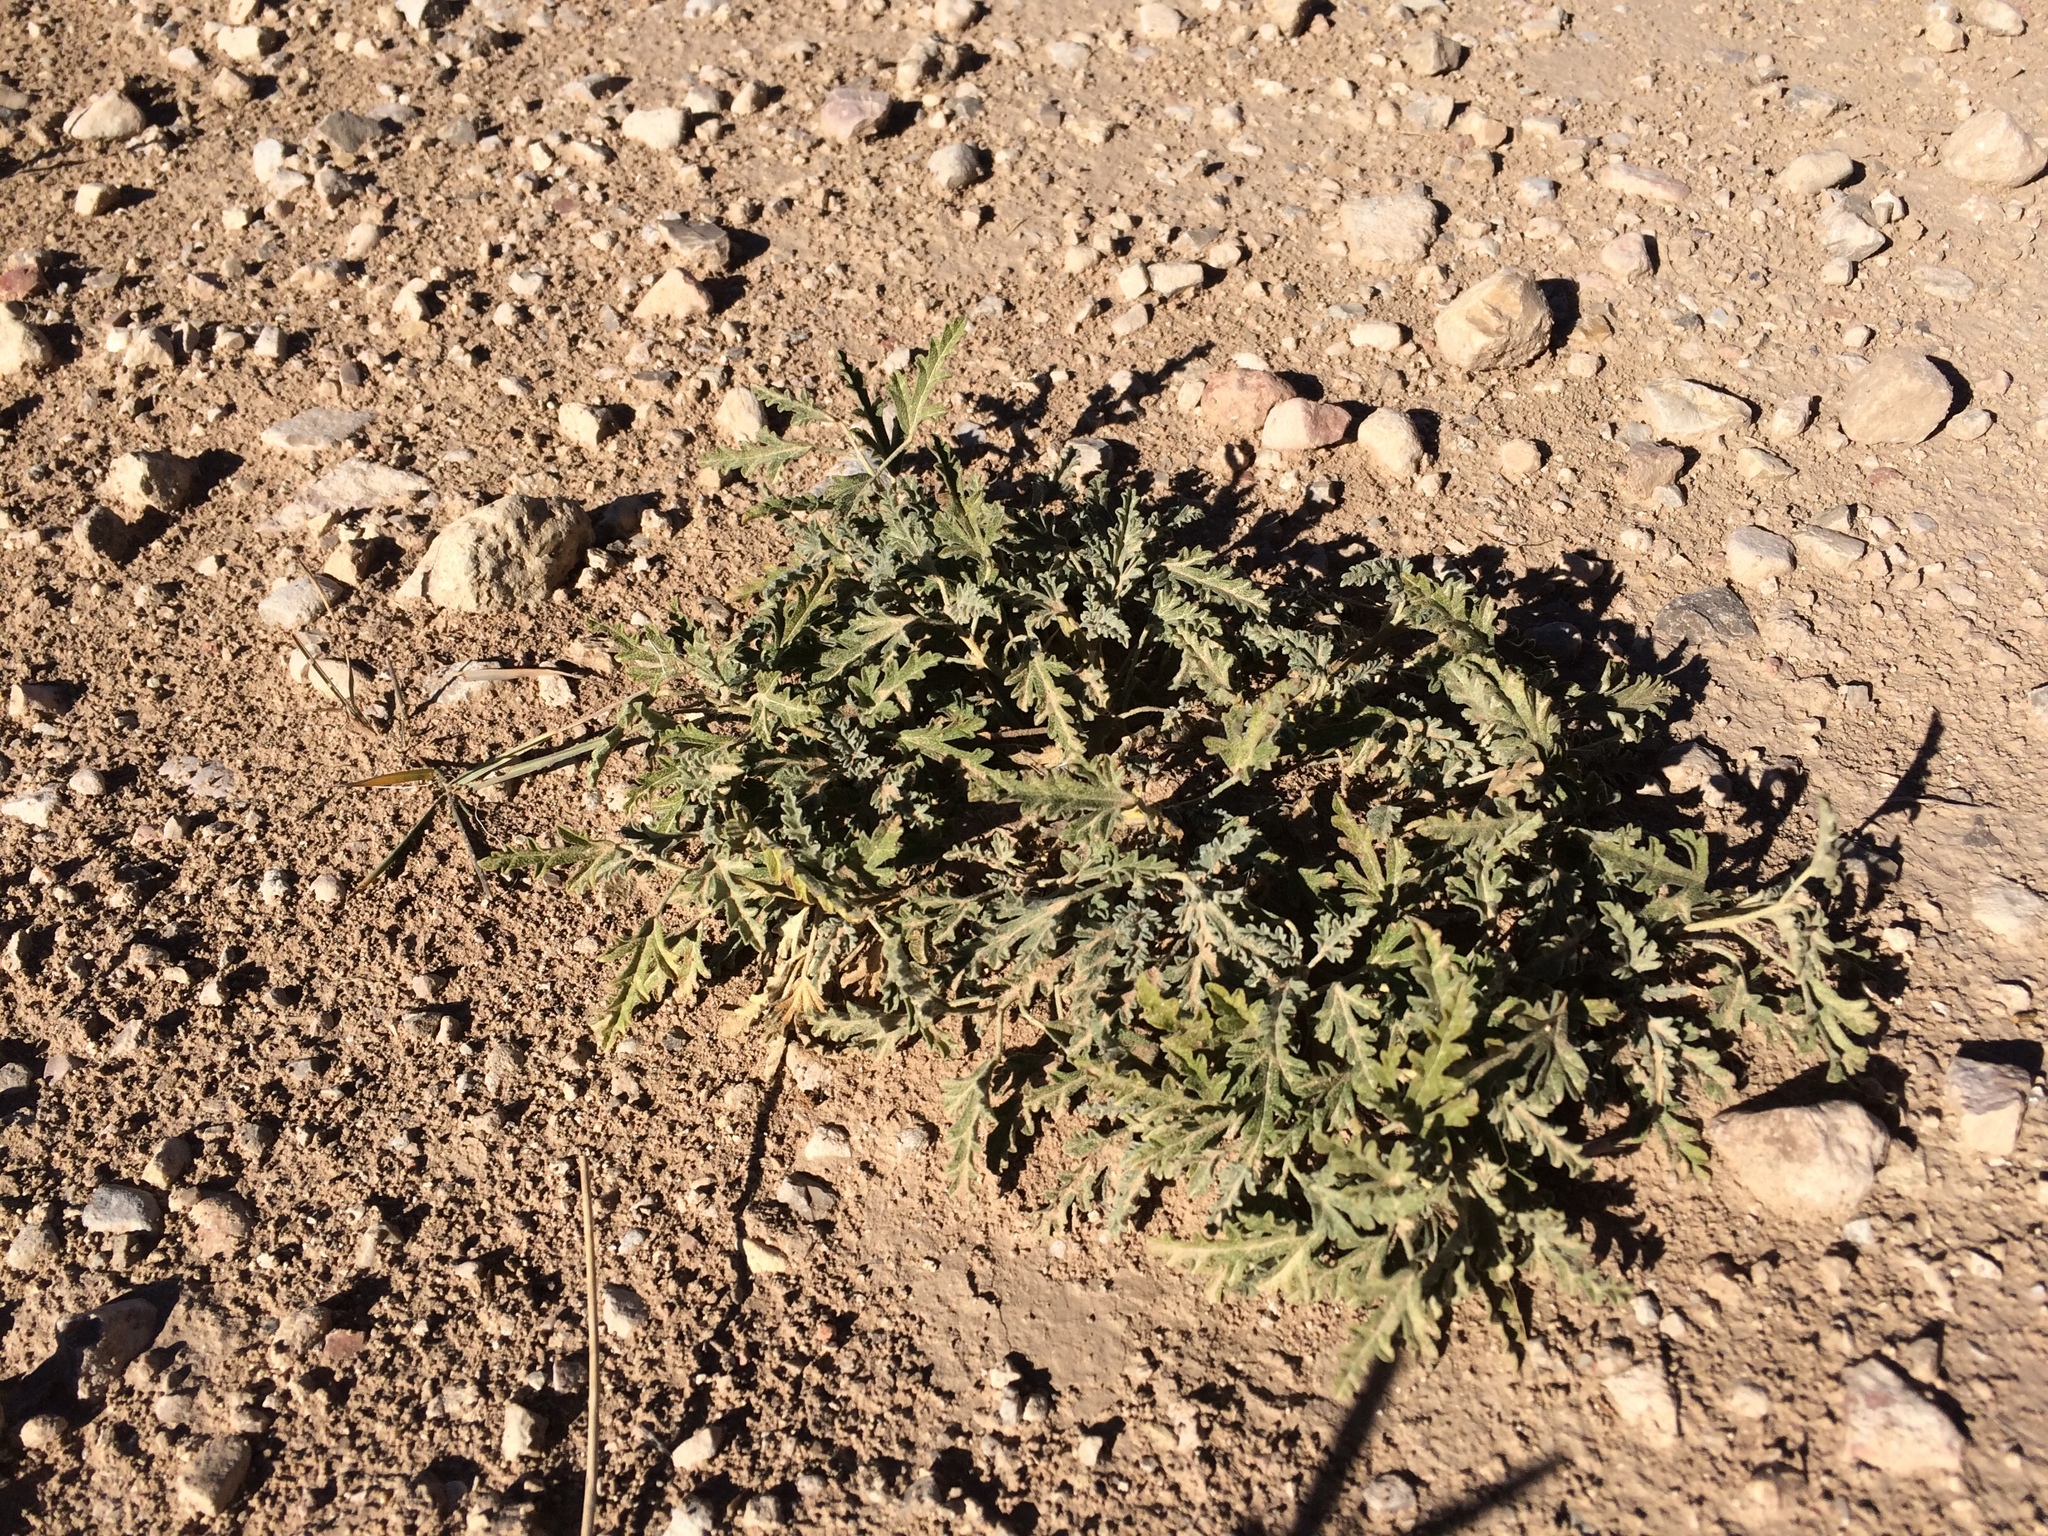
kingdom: Plantae
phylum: Tracheophyta
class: Magnoliopsida
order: Malvales
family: Malvaceae
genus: Sphaeralcea
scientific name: Sphaeralcea hastulata
